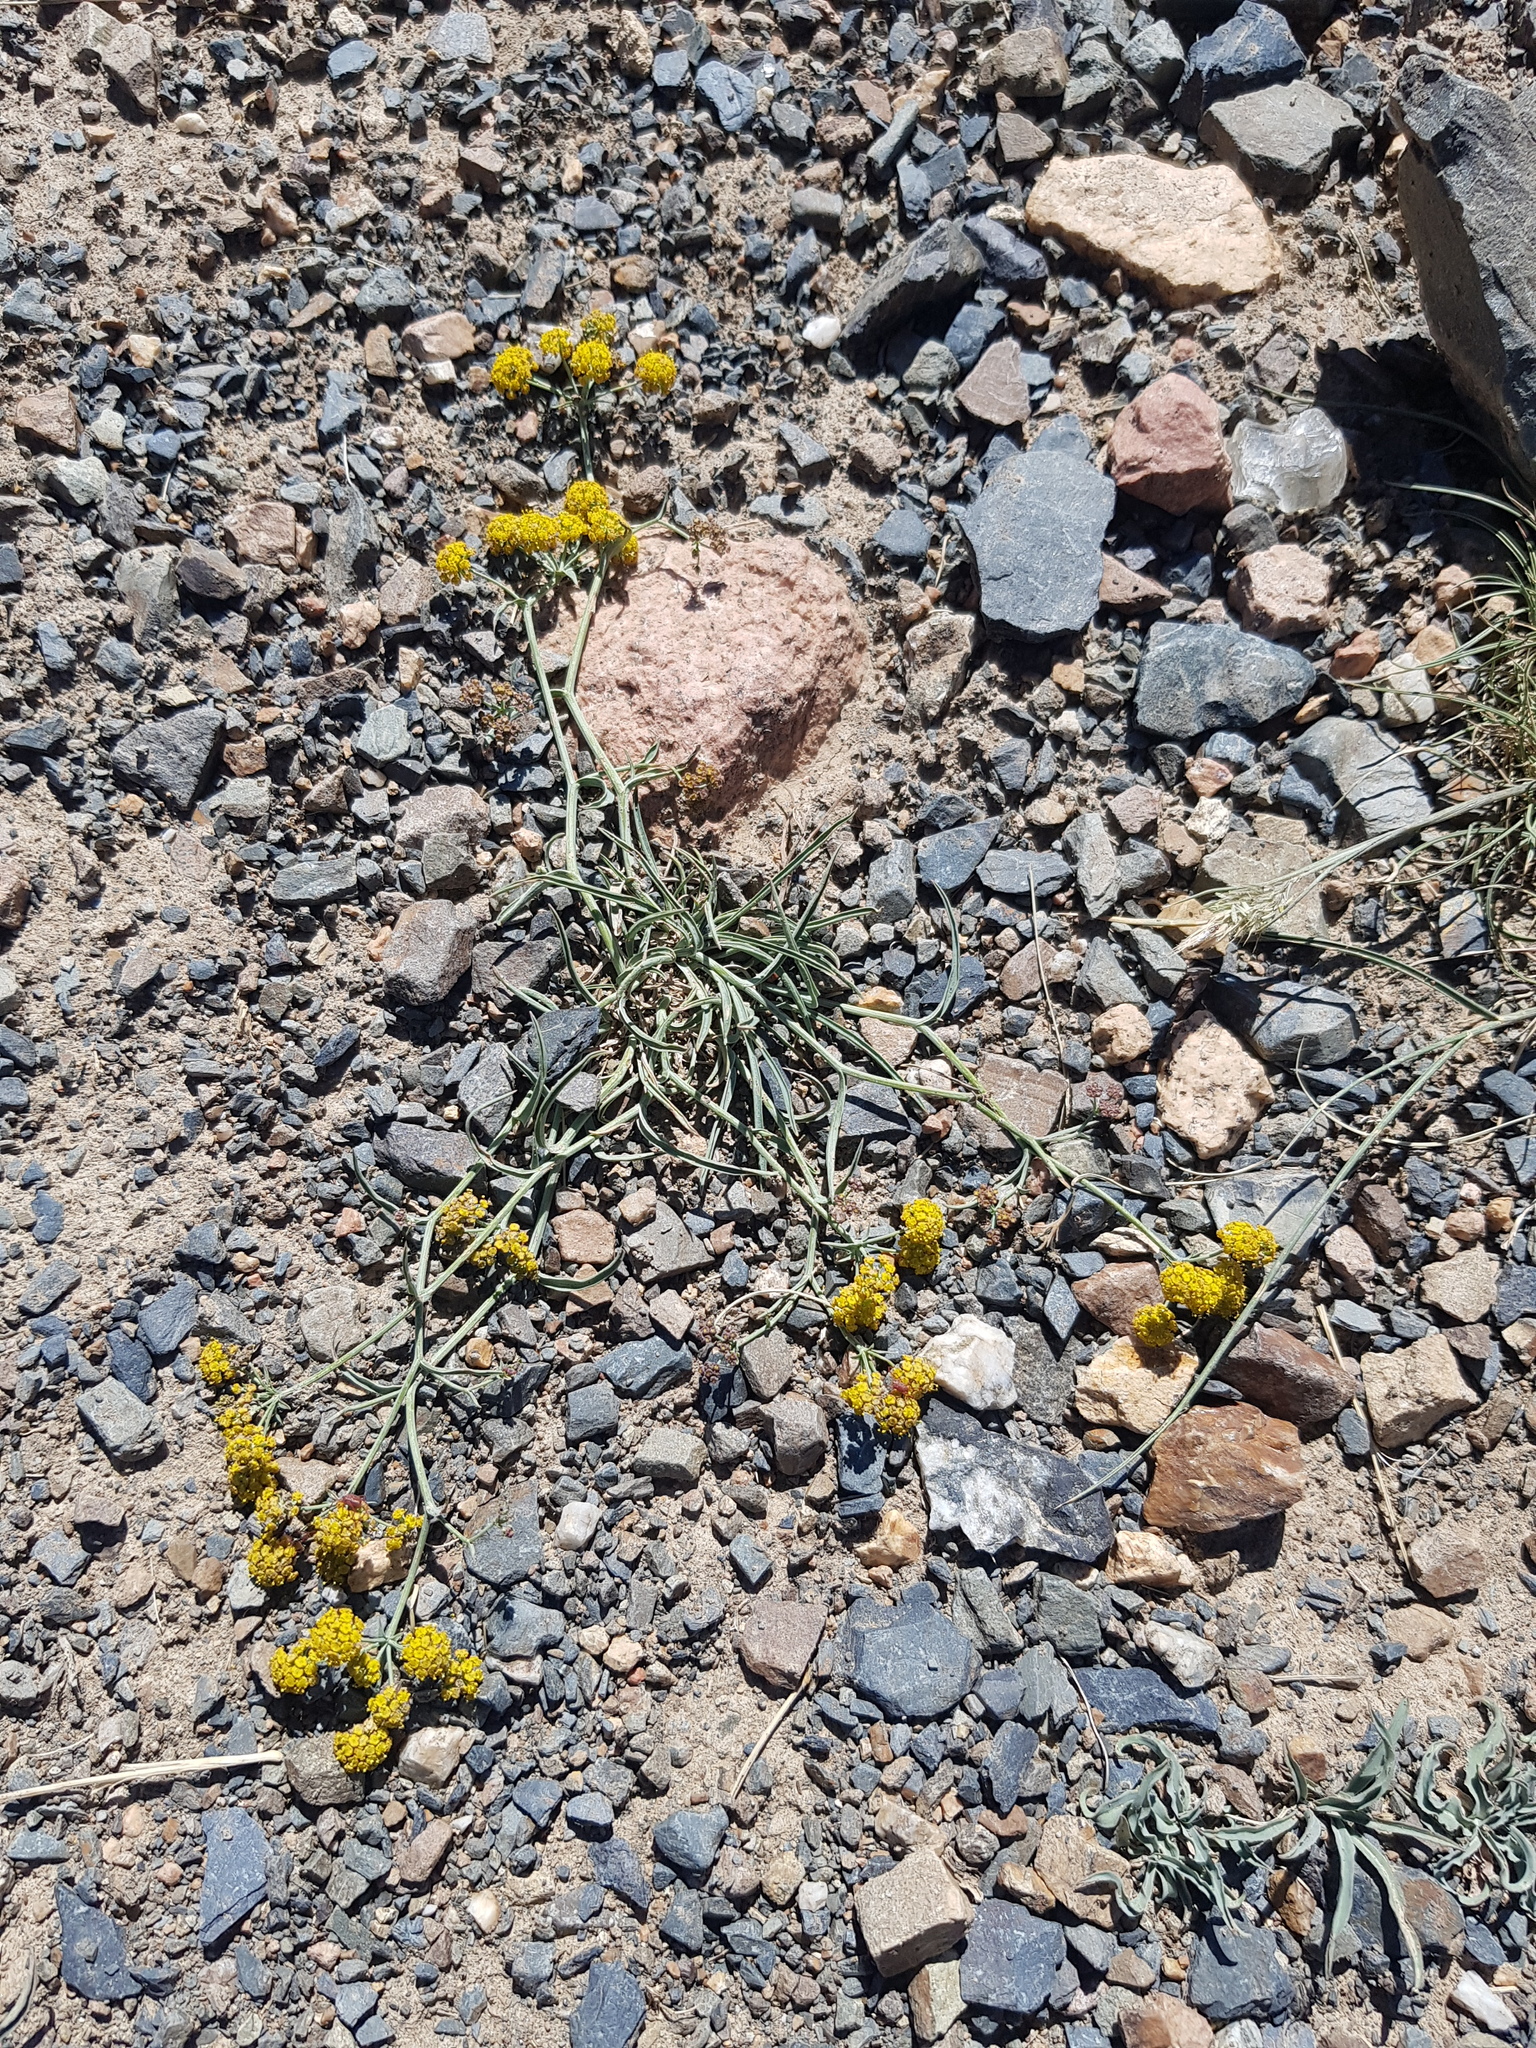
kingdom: Plantae
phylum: Tracheophyta
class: Magnoliopsida
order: Apiales
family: Apiaceae
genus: Bupleurum
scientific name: Bupleurum densiflorum
